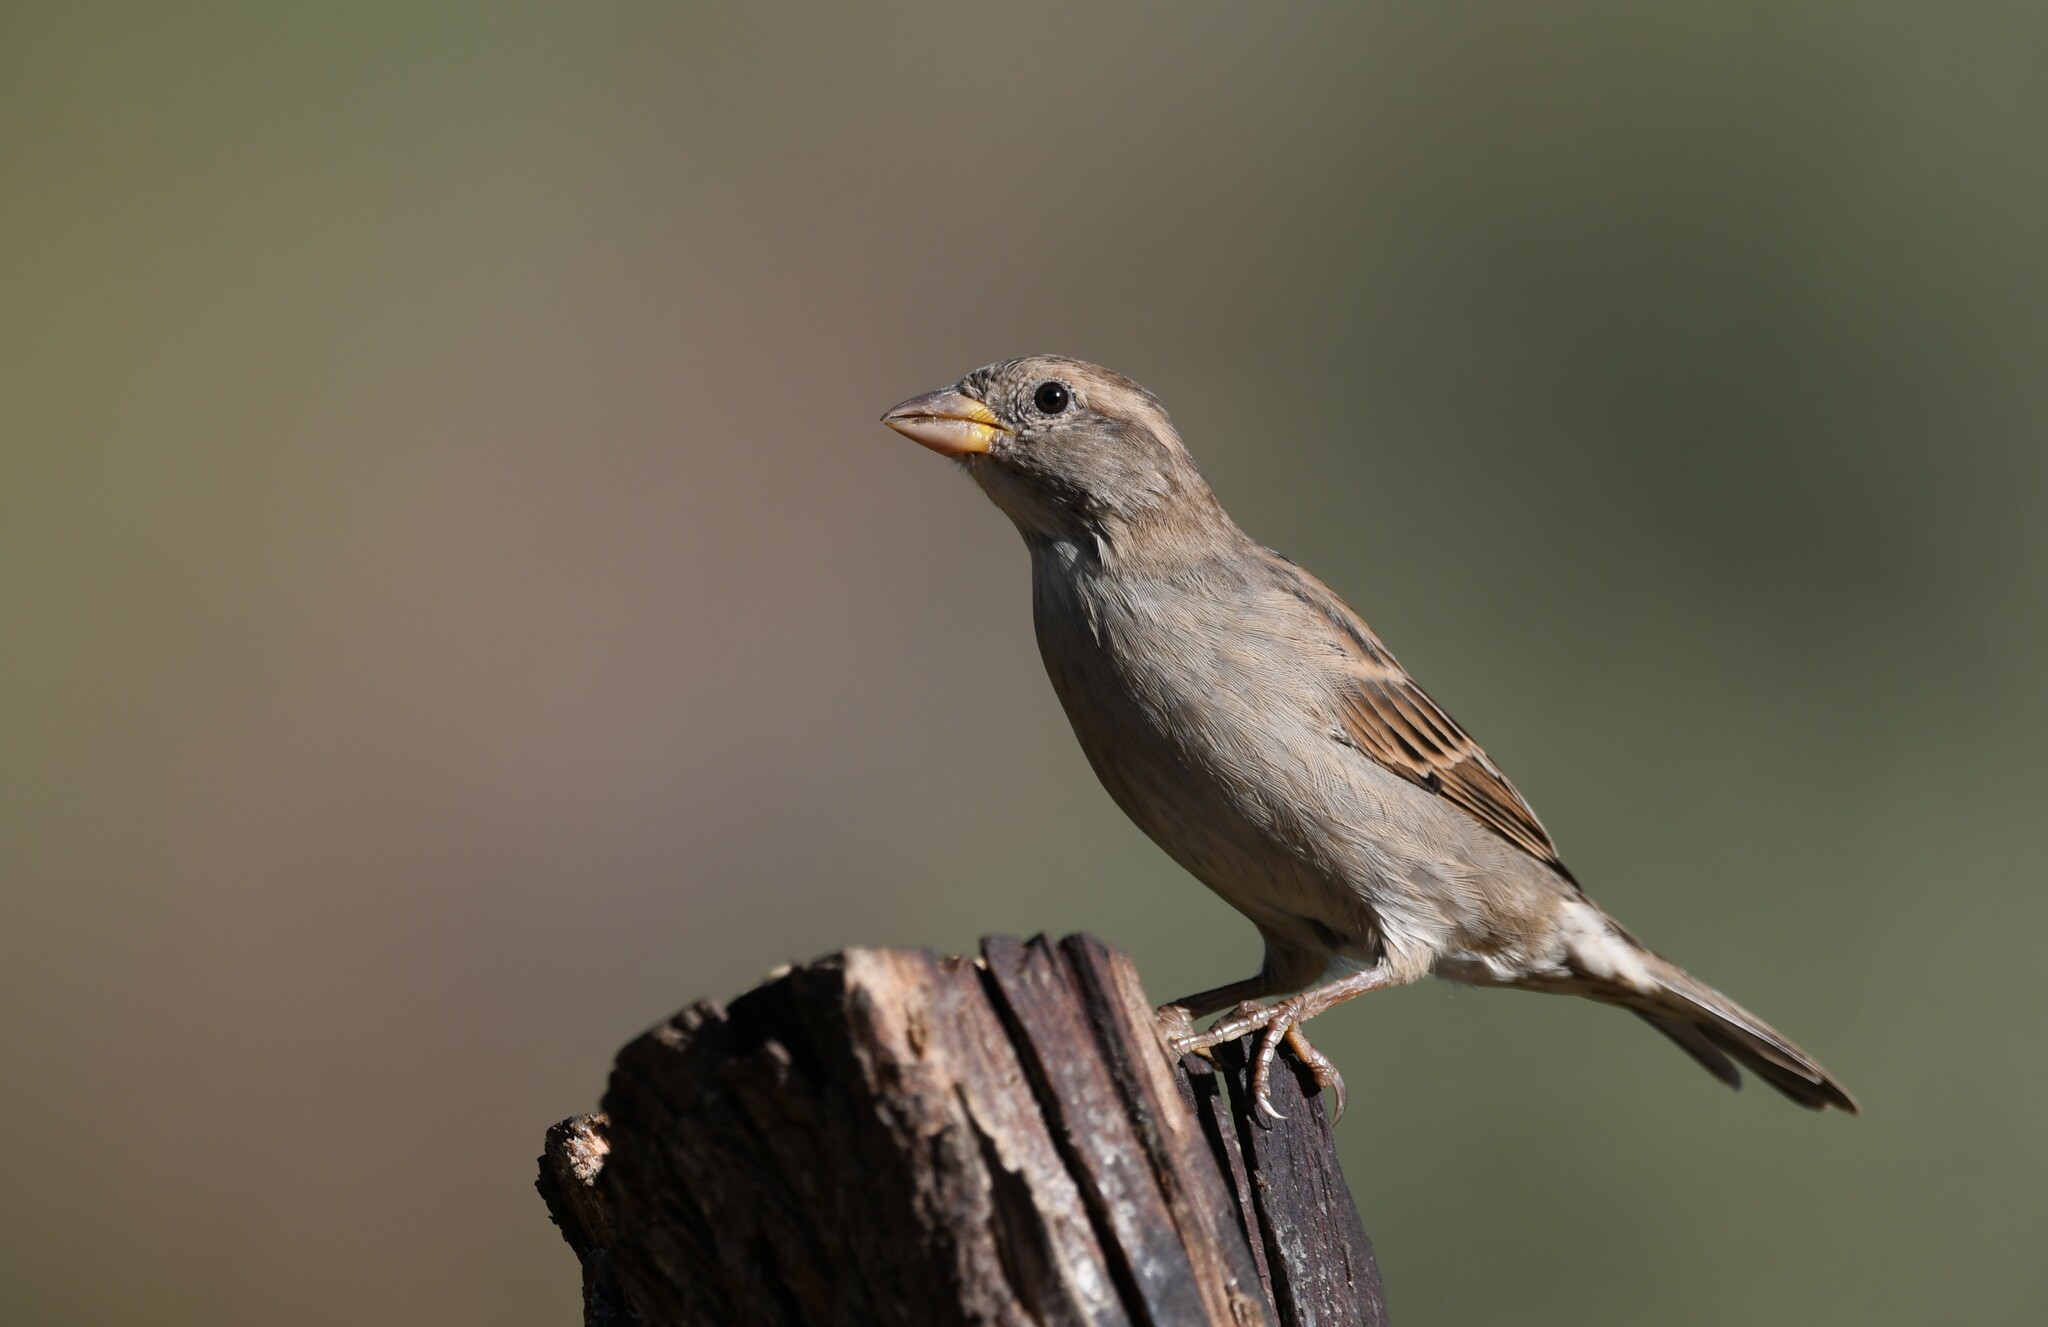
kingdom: Animalia
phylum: Chordata
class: Aves
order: Passeriformes
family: Passeridae
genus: Passer
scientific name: Passer domesticus
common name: House sparrow
